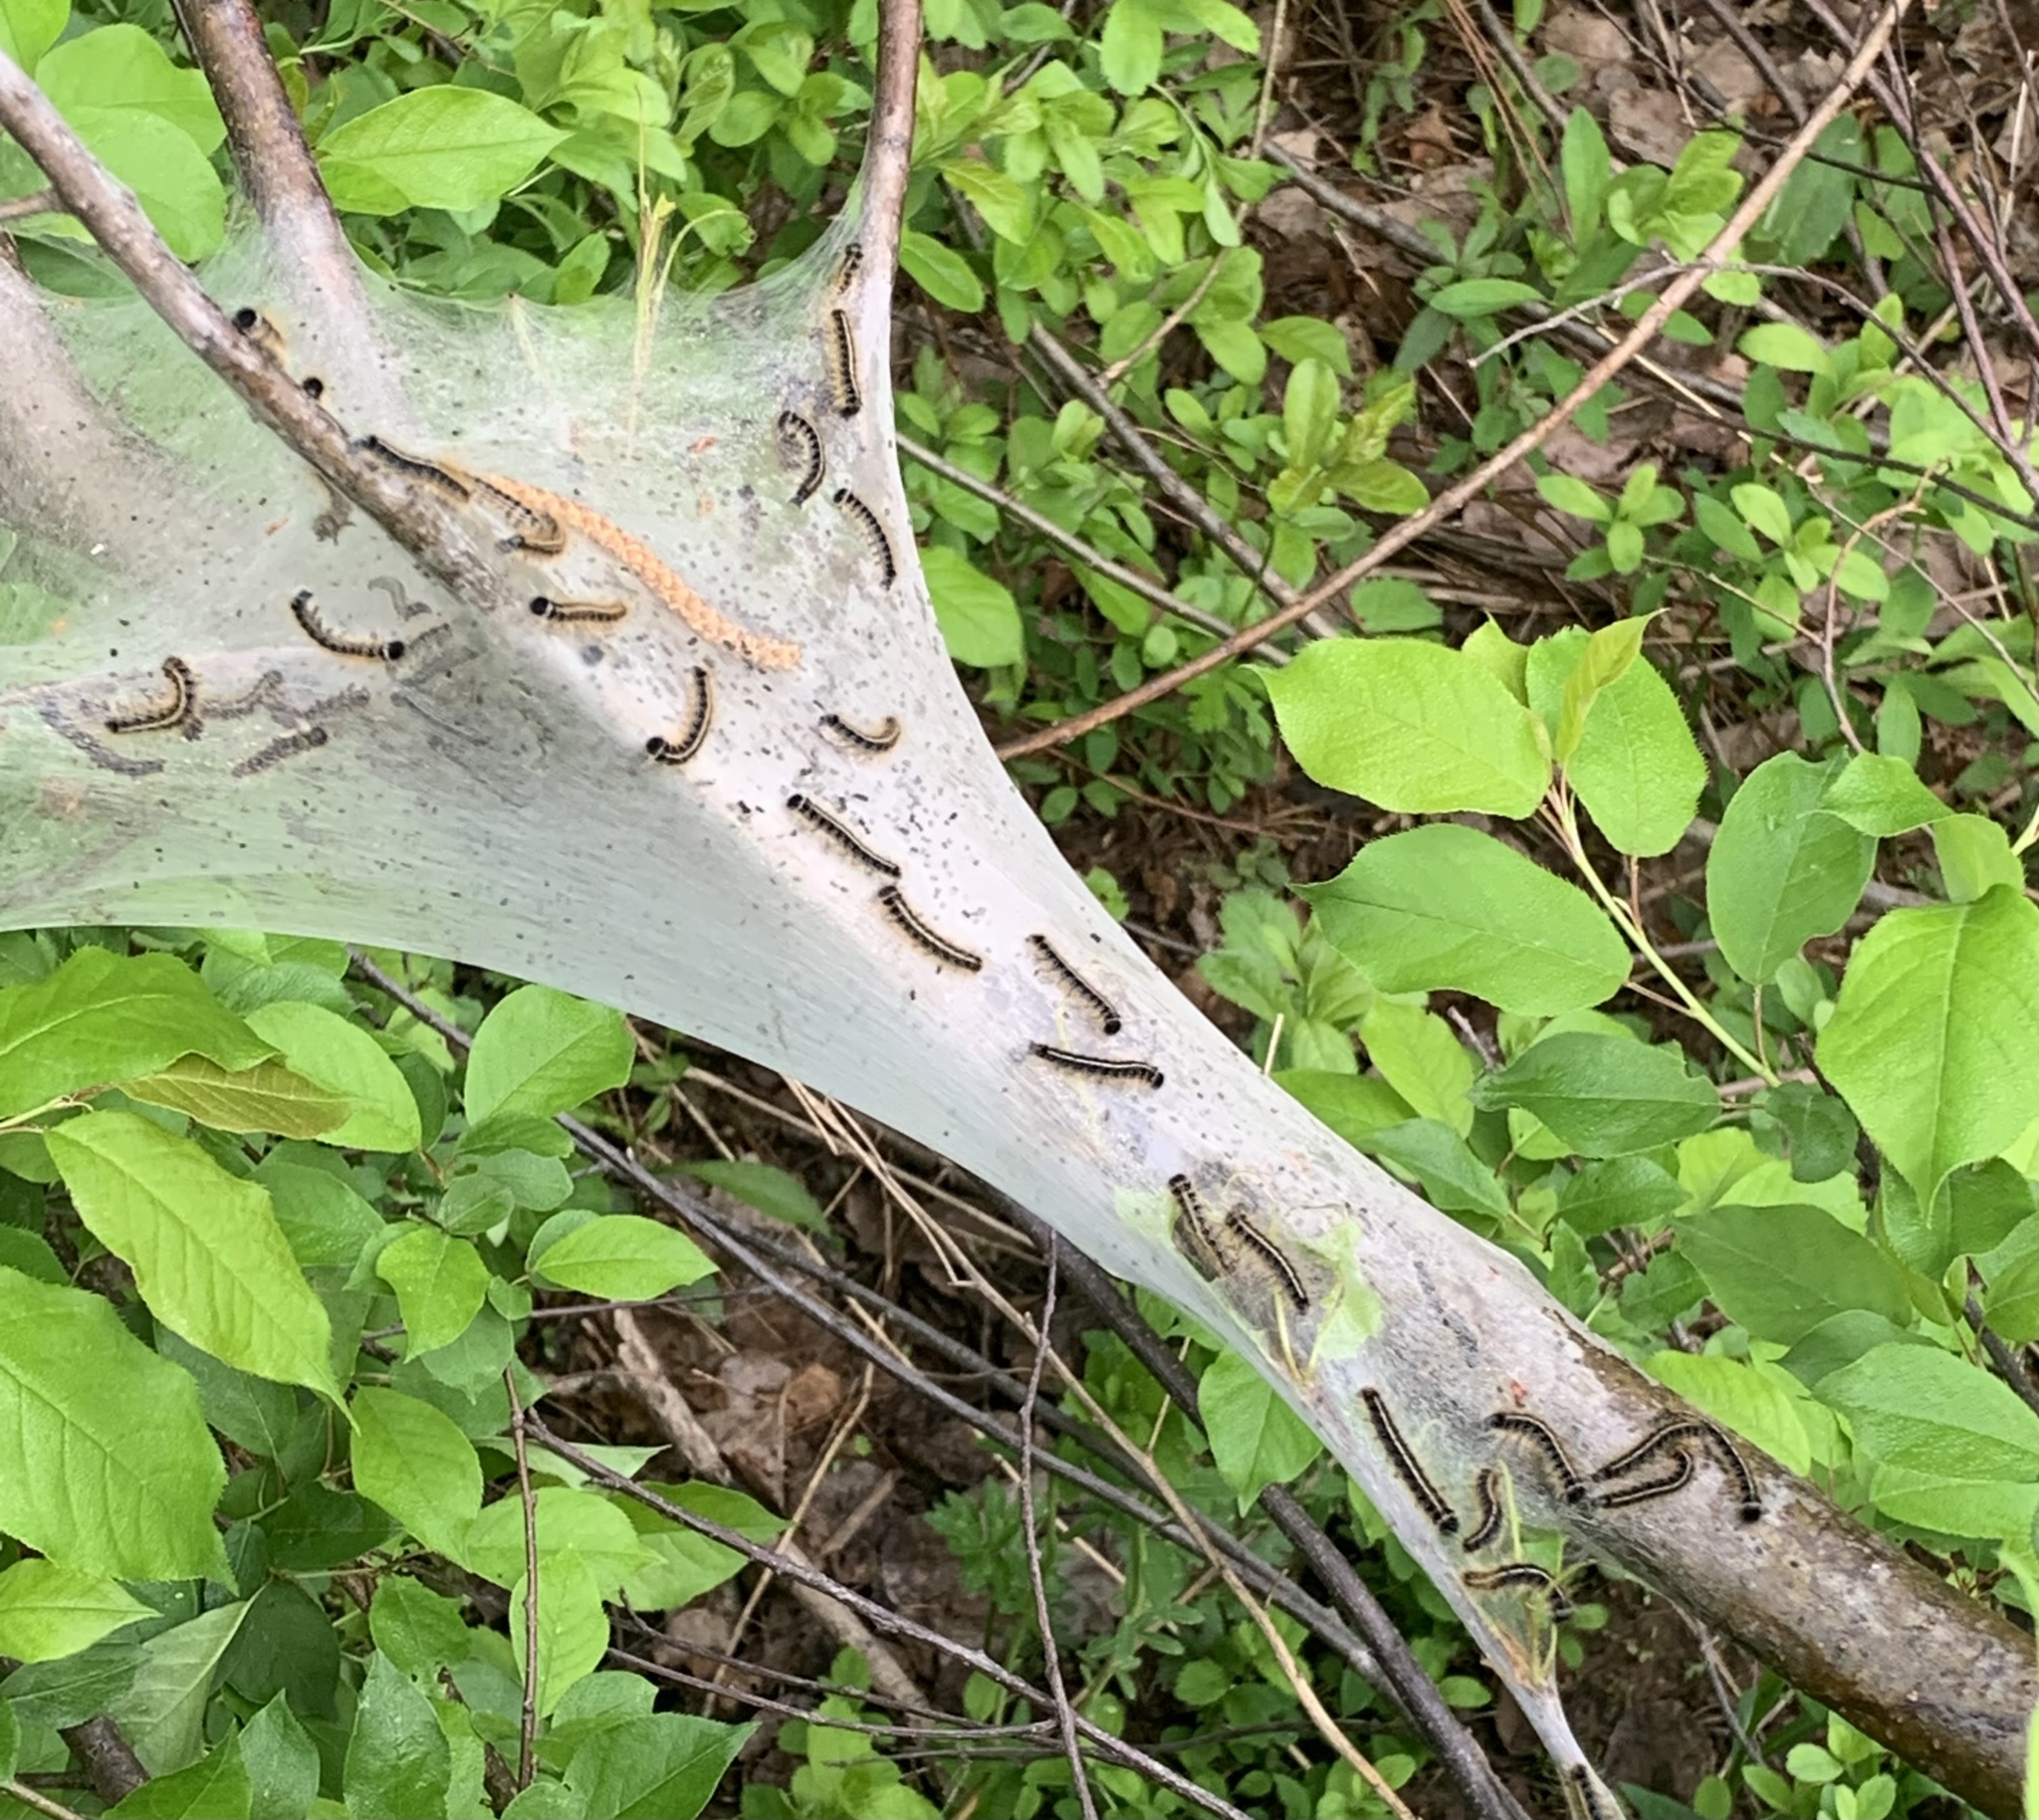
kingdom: Animalia
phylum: Arthropoda
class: Insecta
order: Lepidoptera
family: Lasiocampidae
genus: Malacosoma
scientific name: Malacosoma americana
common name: Eastern tent caterpillar moth
